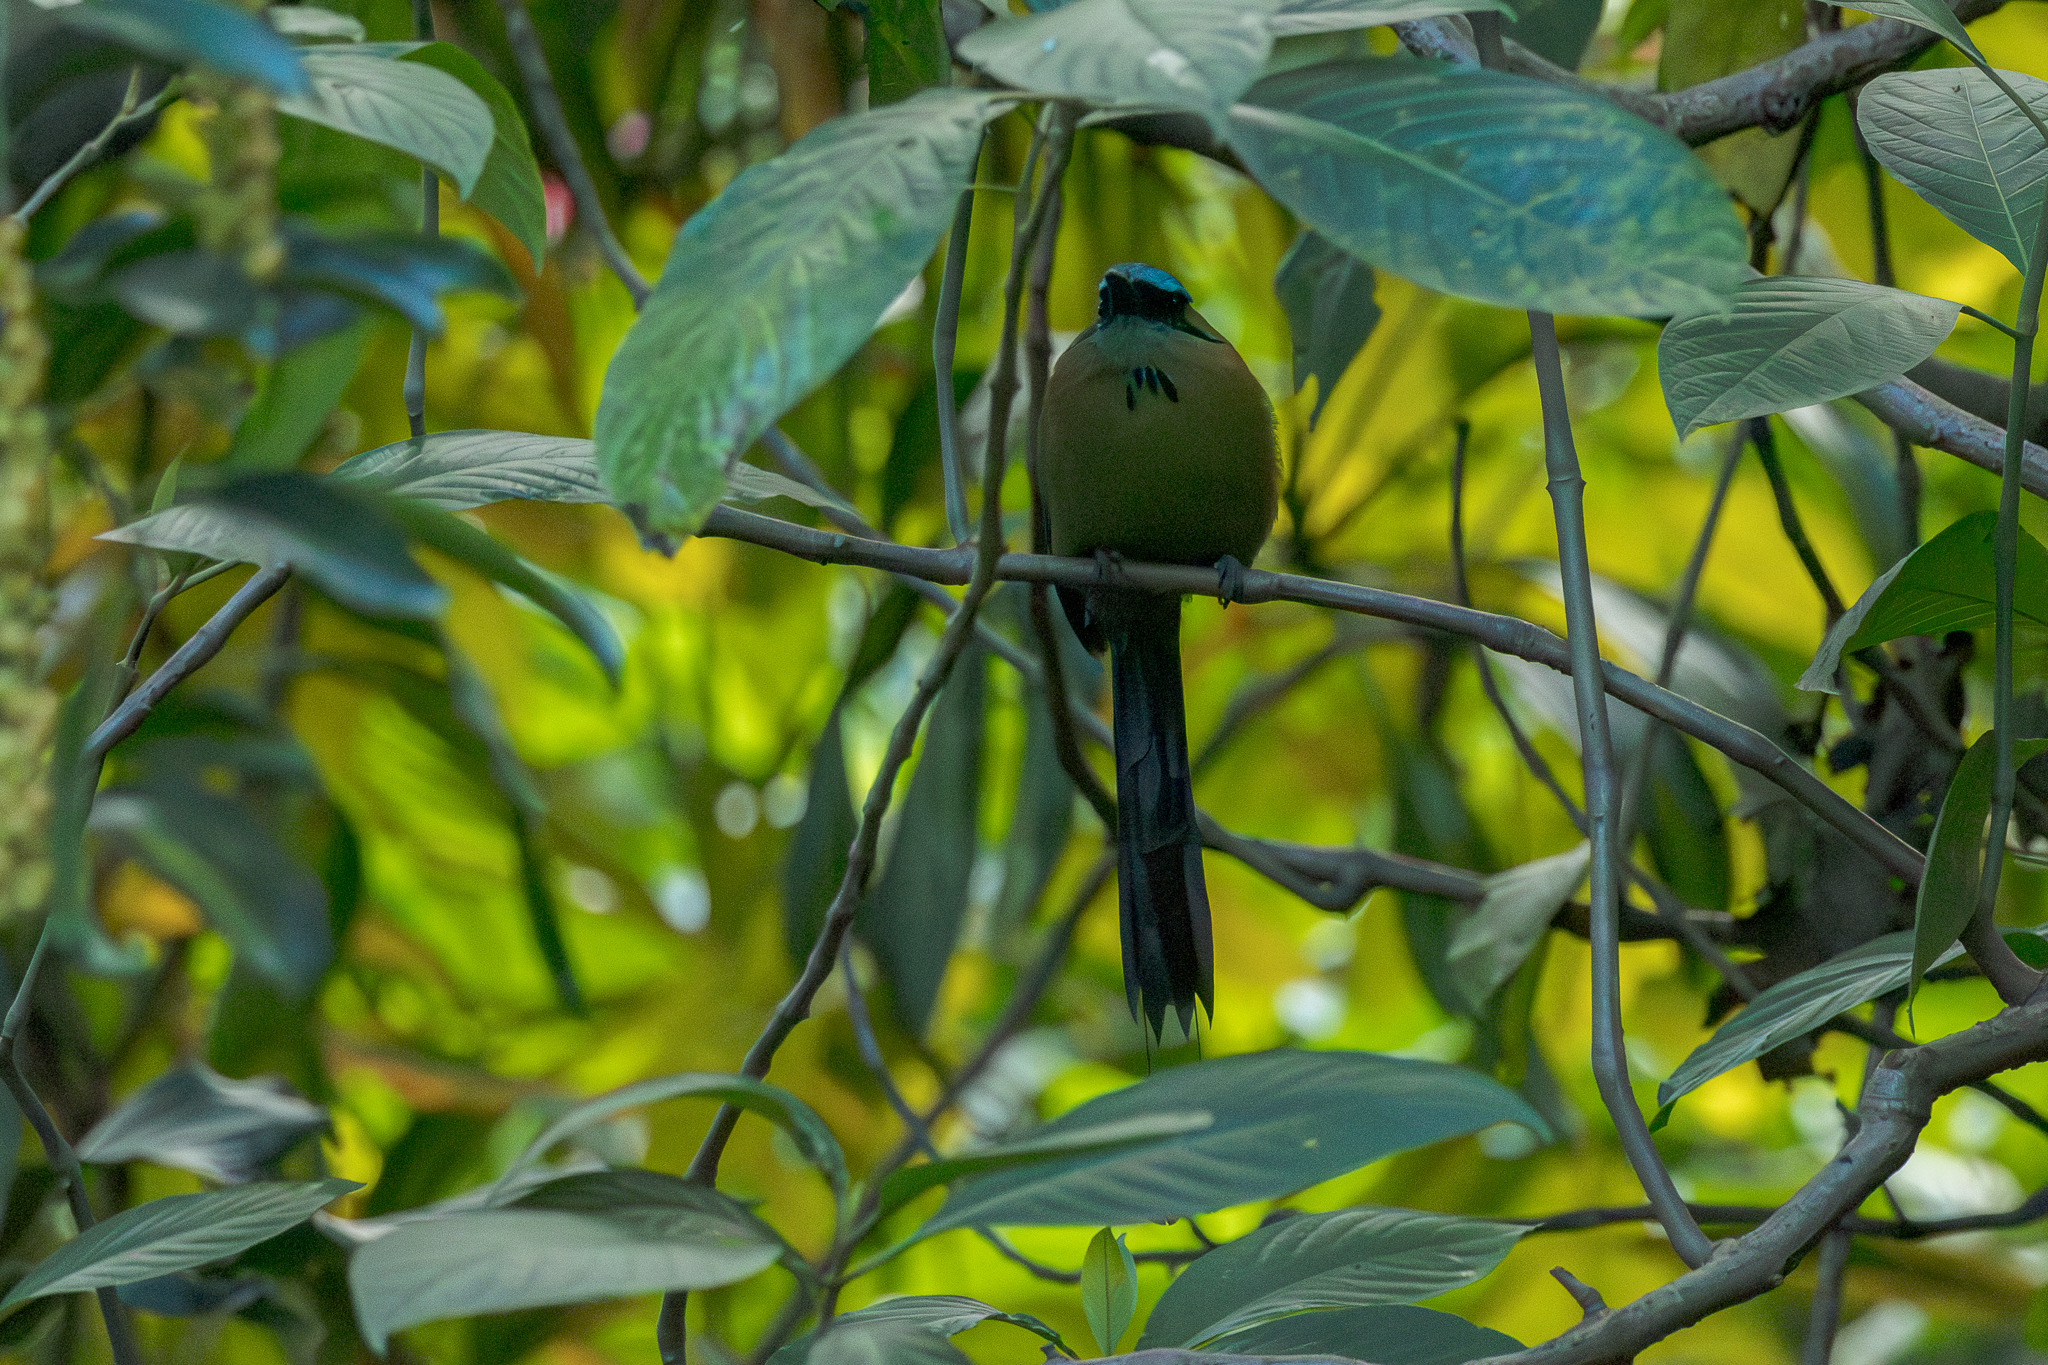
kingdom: Animalia
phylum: Chordata
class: Aves
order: Coraciiformes
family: Momotidae
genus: Momotus
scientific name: Momotus lessonii
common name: Lesson's motmot
